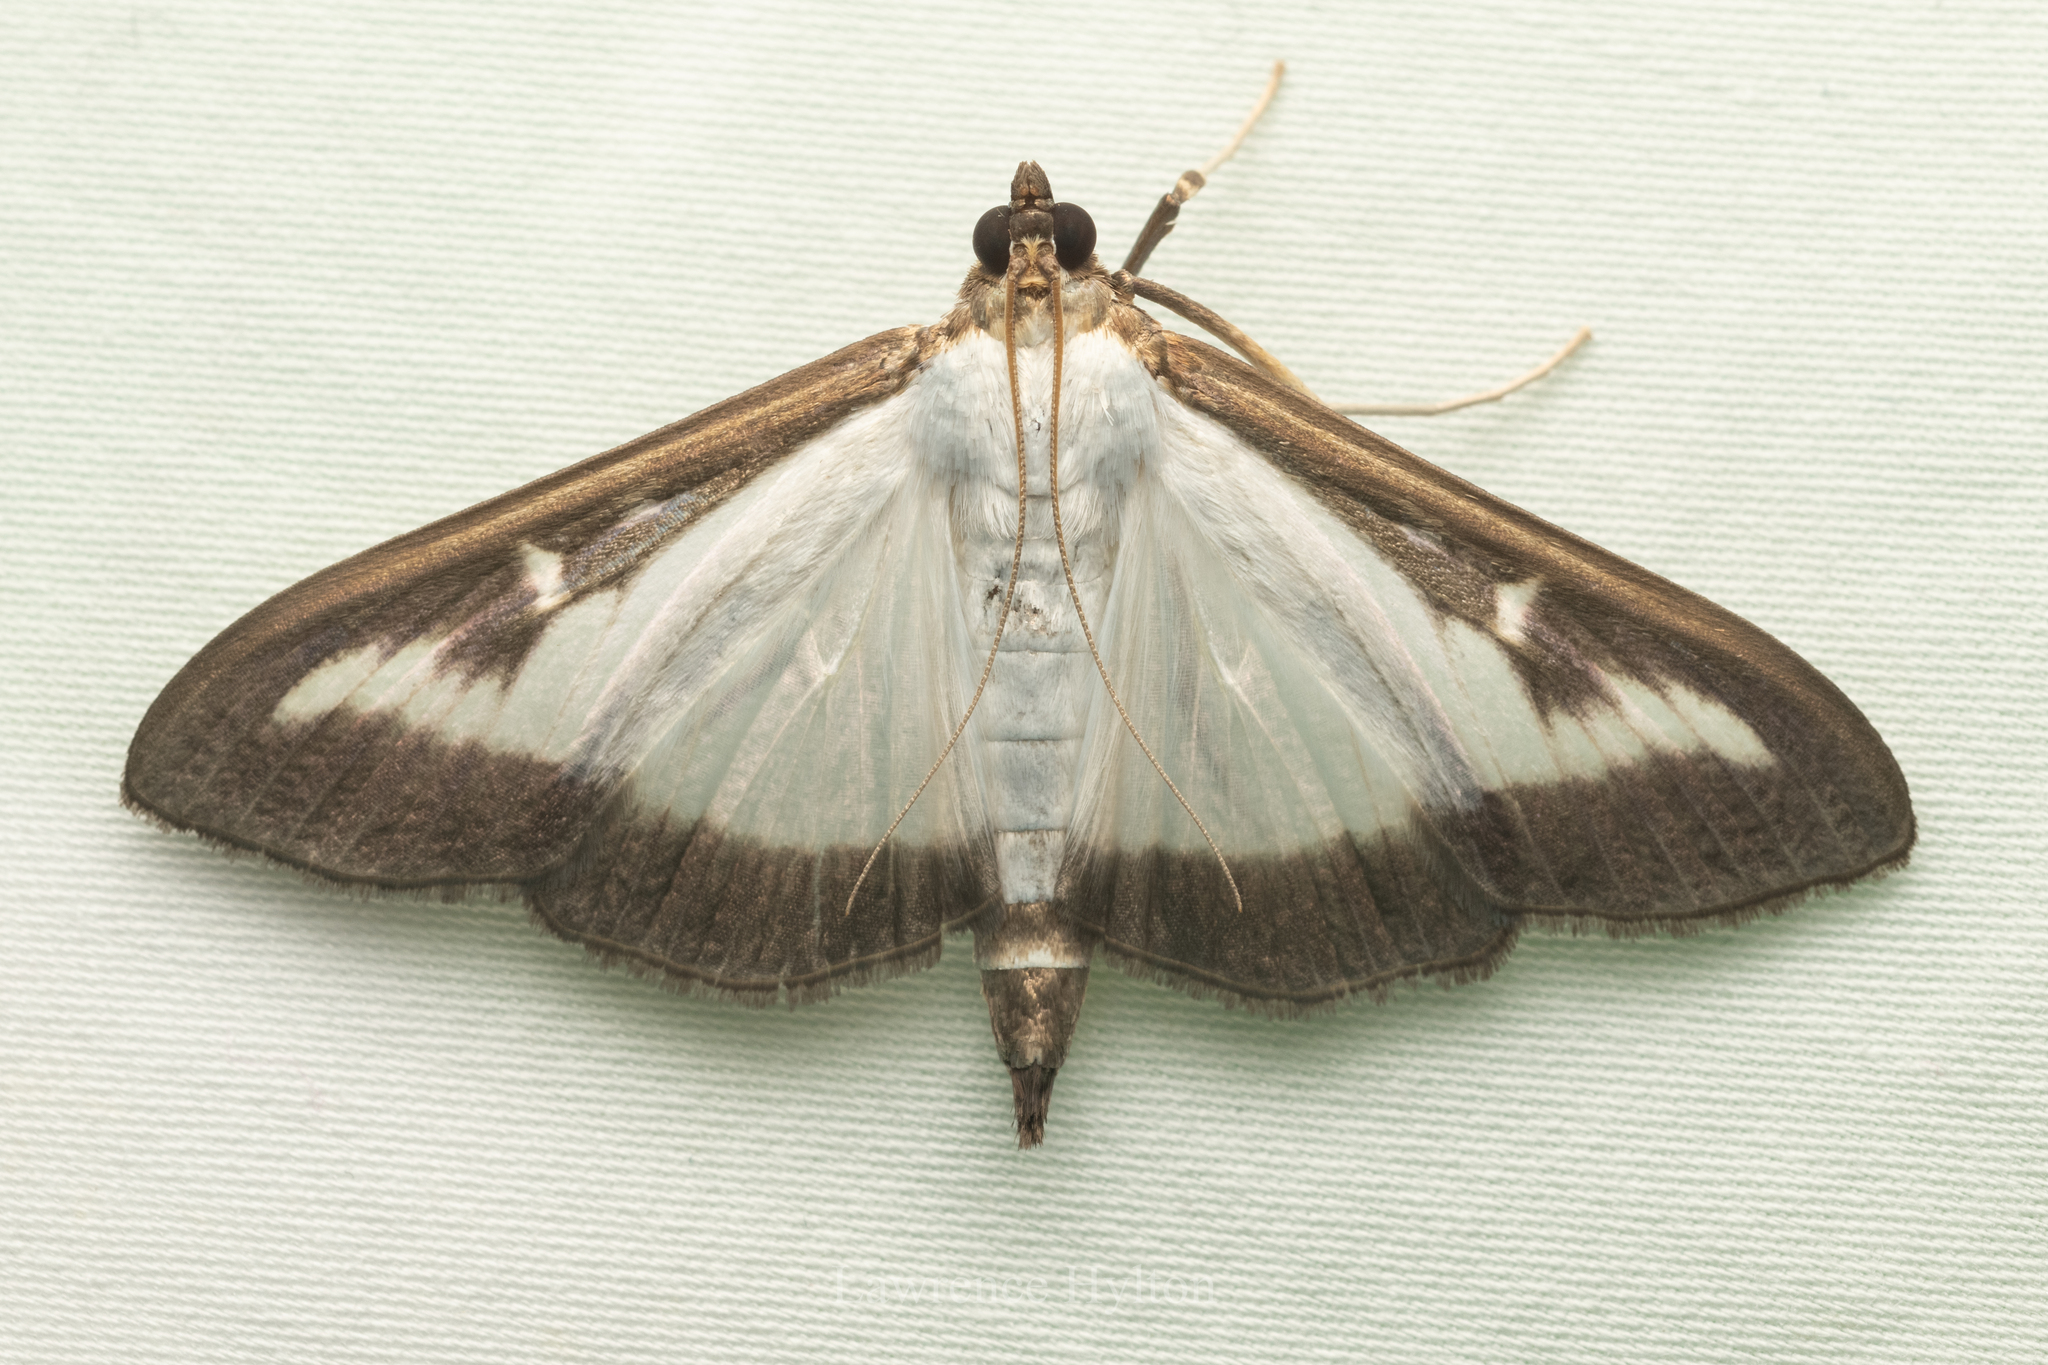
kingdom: Animalia
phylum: Arthropoda
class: Insecta
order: Lepidoptera
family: Crambidae
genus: Cydalima
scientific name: Cydalima perspectalis
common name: Box tree moth
